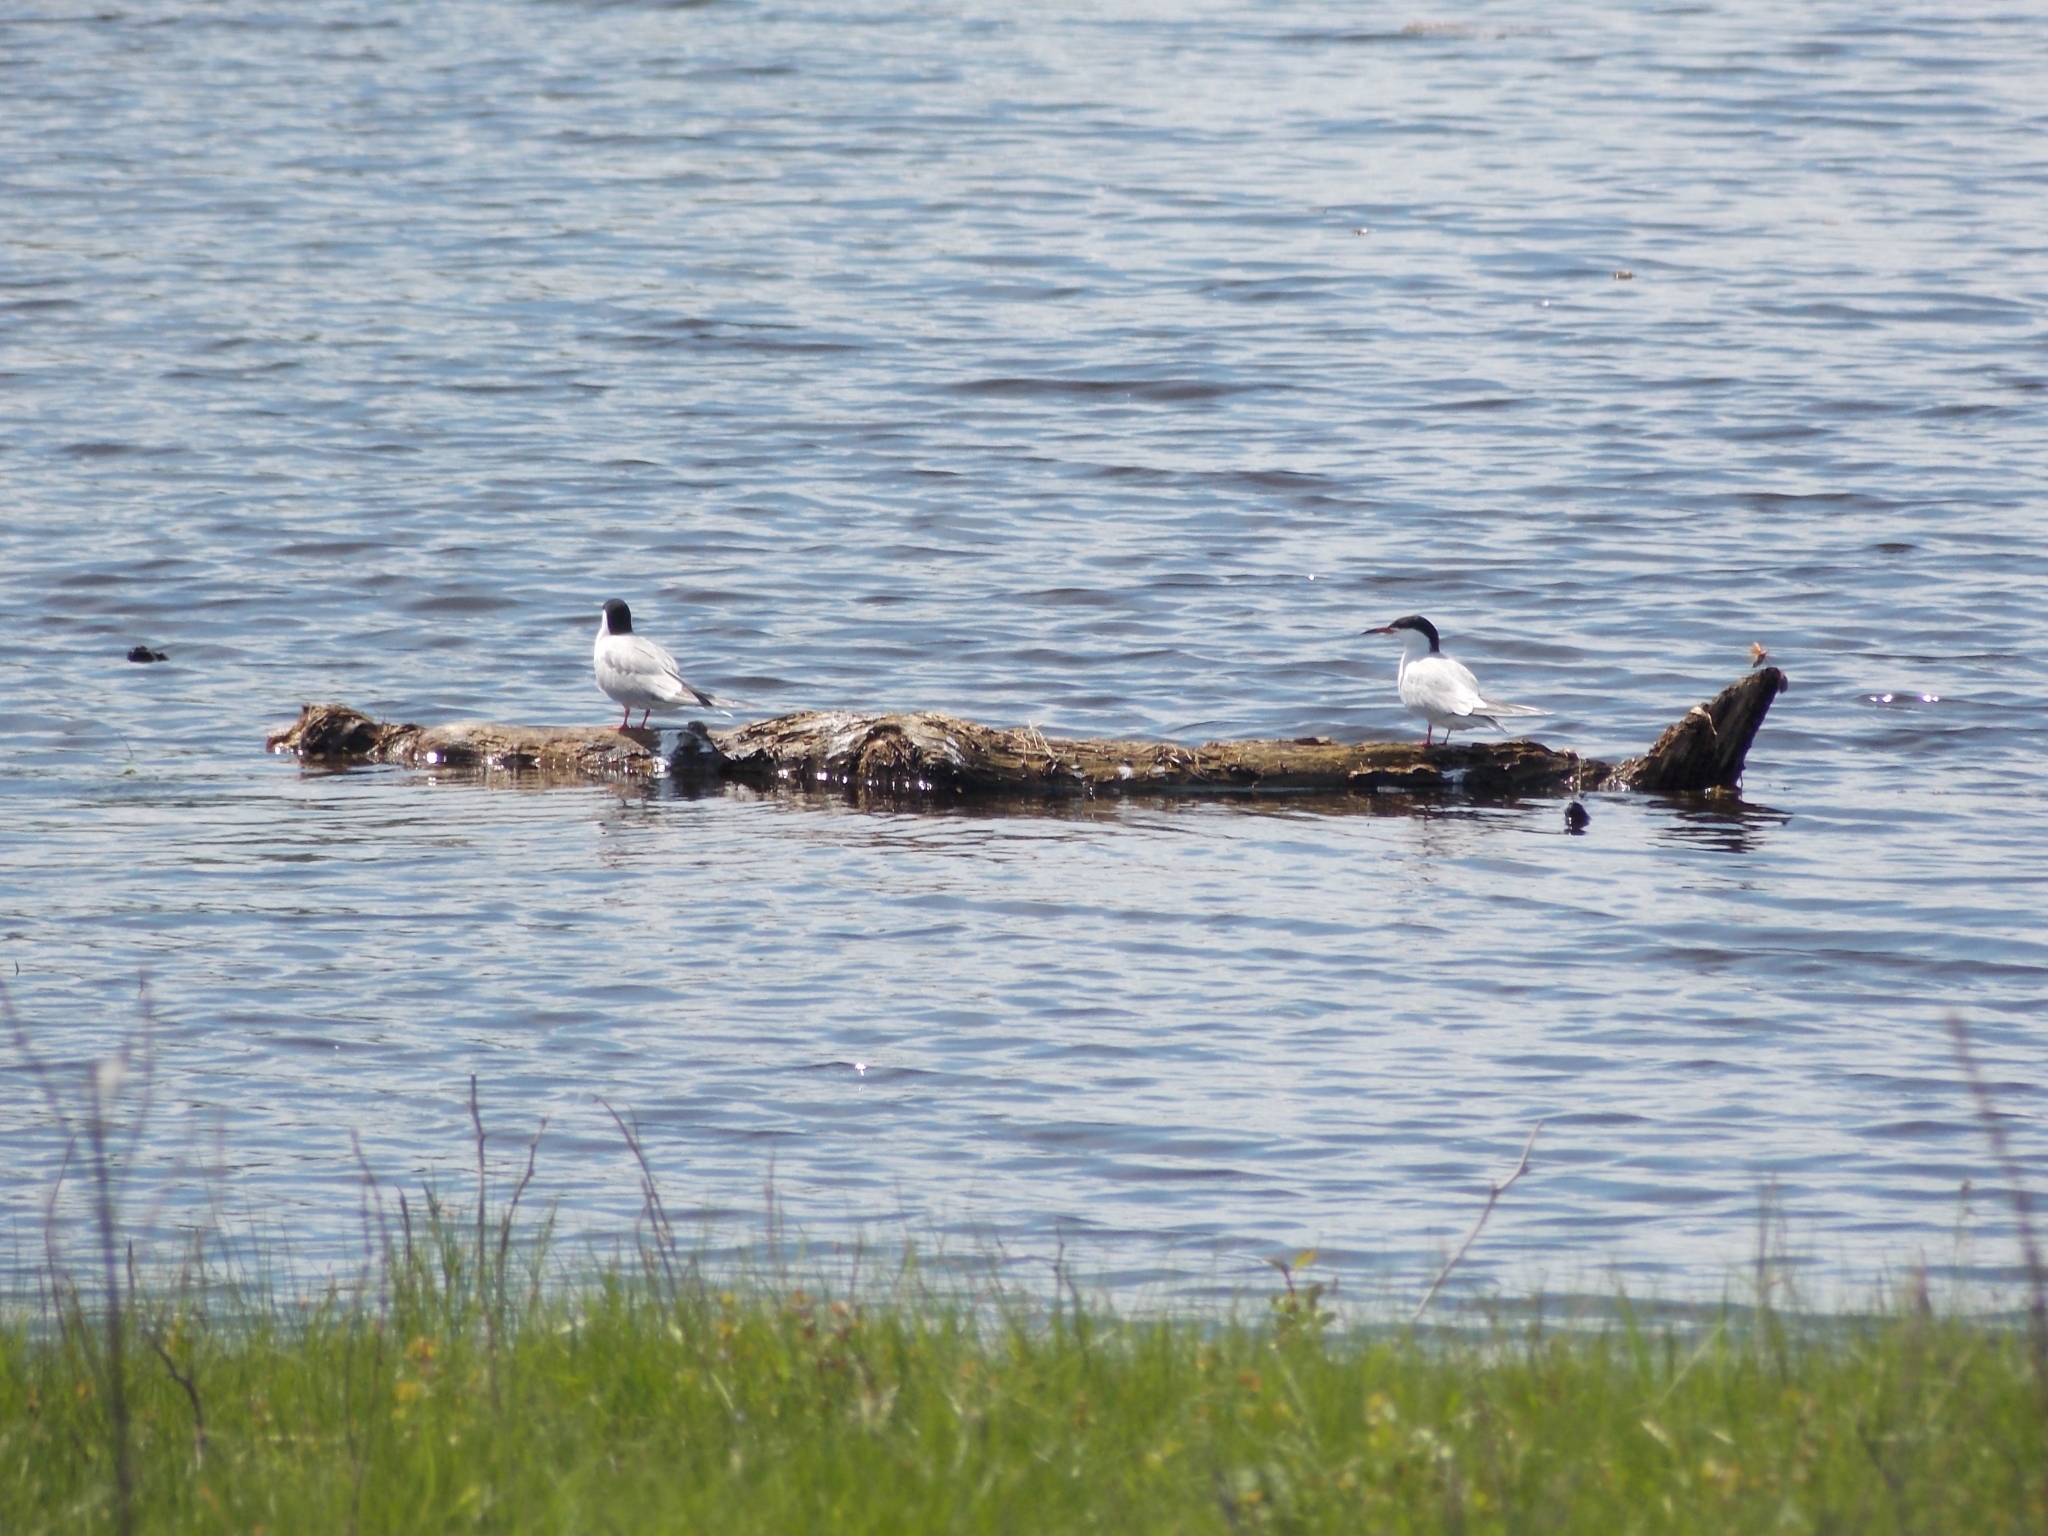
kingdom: Animalia
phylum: Chordata
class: Aves
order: Charadriiformes
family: Laridae
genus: Sterna
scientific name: Sterna hirundo
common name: Common tern
